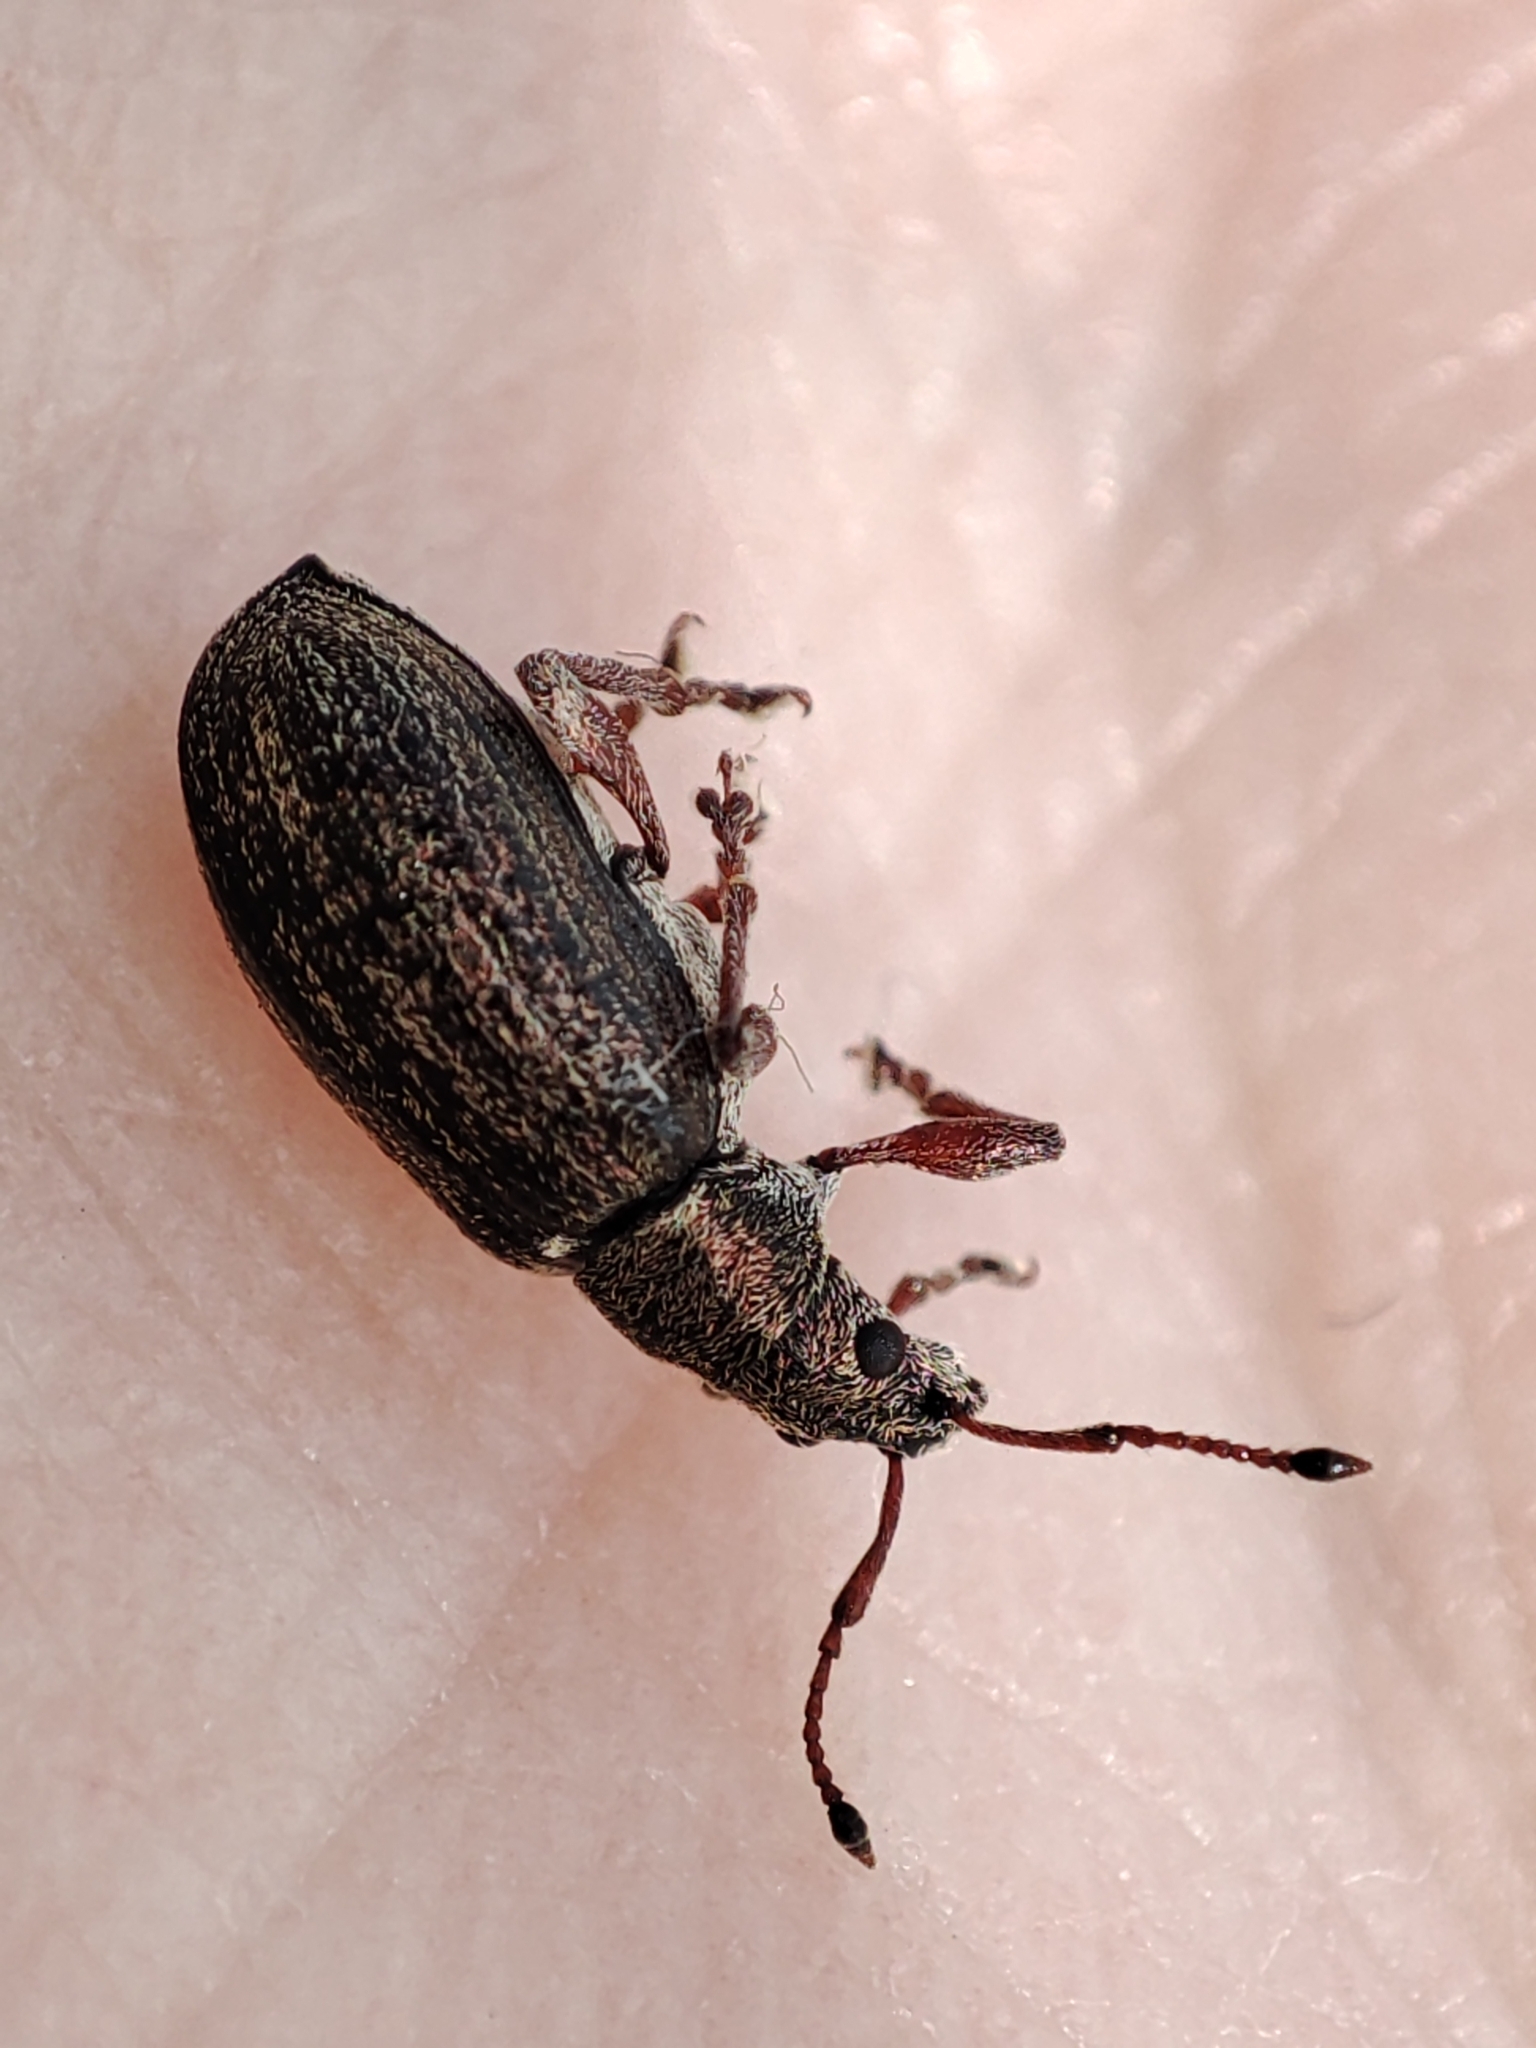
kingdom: Animalia
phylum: Arthropoda
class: Insecta
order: Coleoptera
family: Curculionidae
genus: Phyllobius
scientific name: Phyllobius pyri
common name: Common leaf weevil
